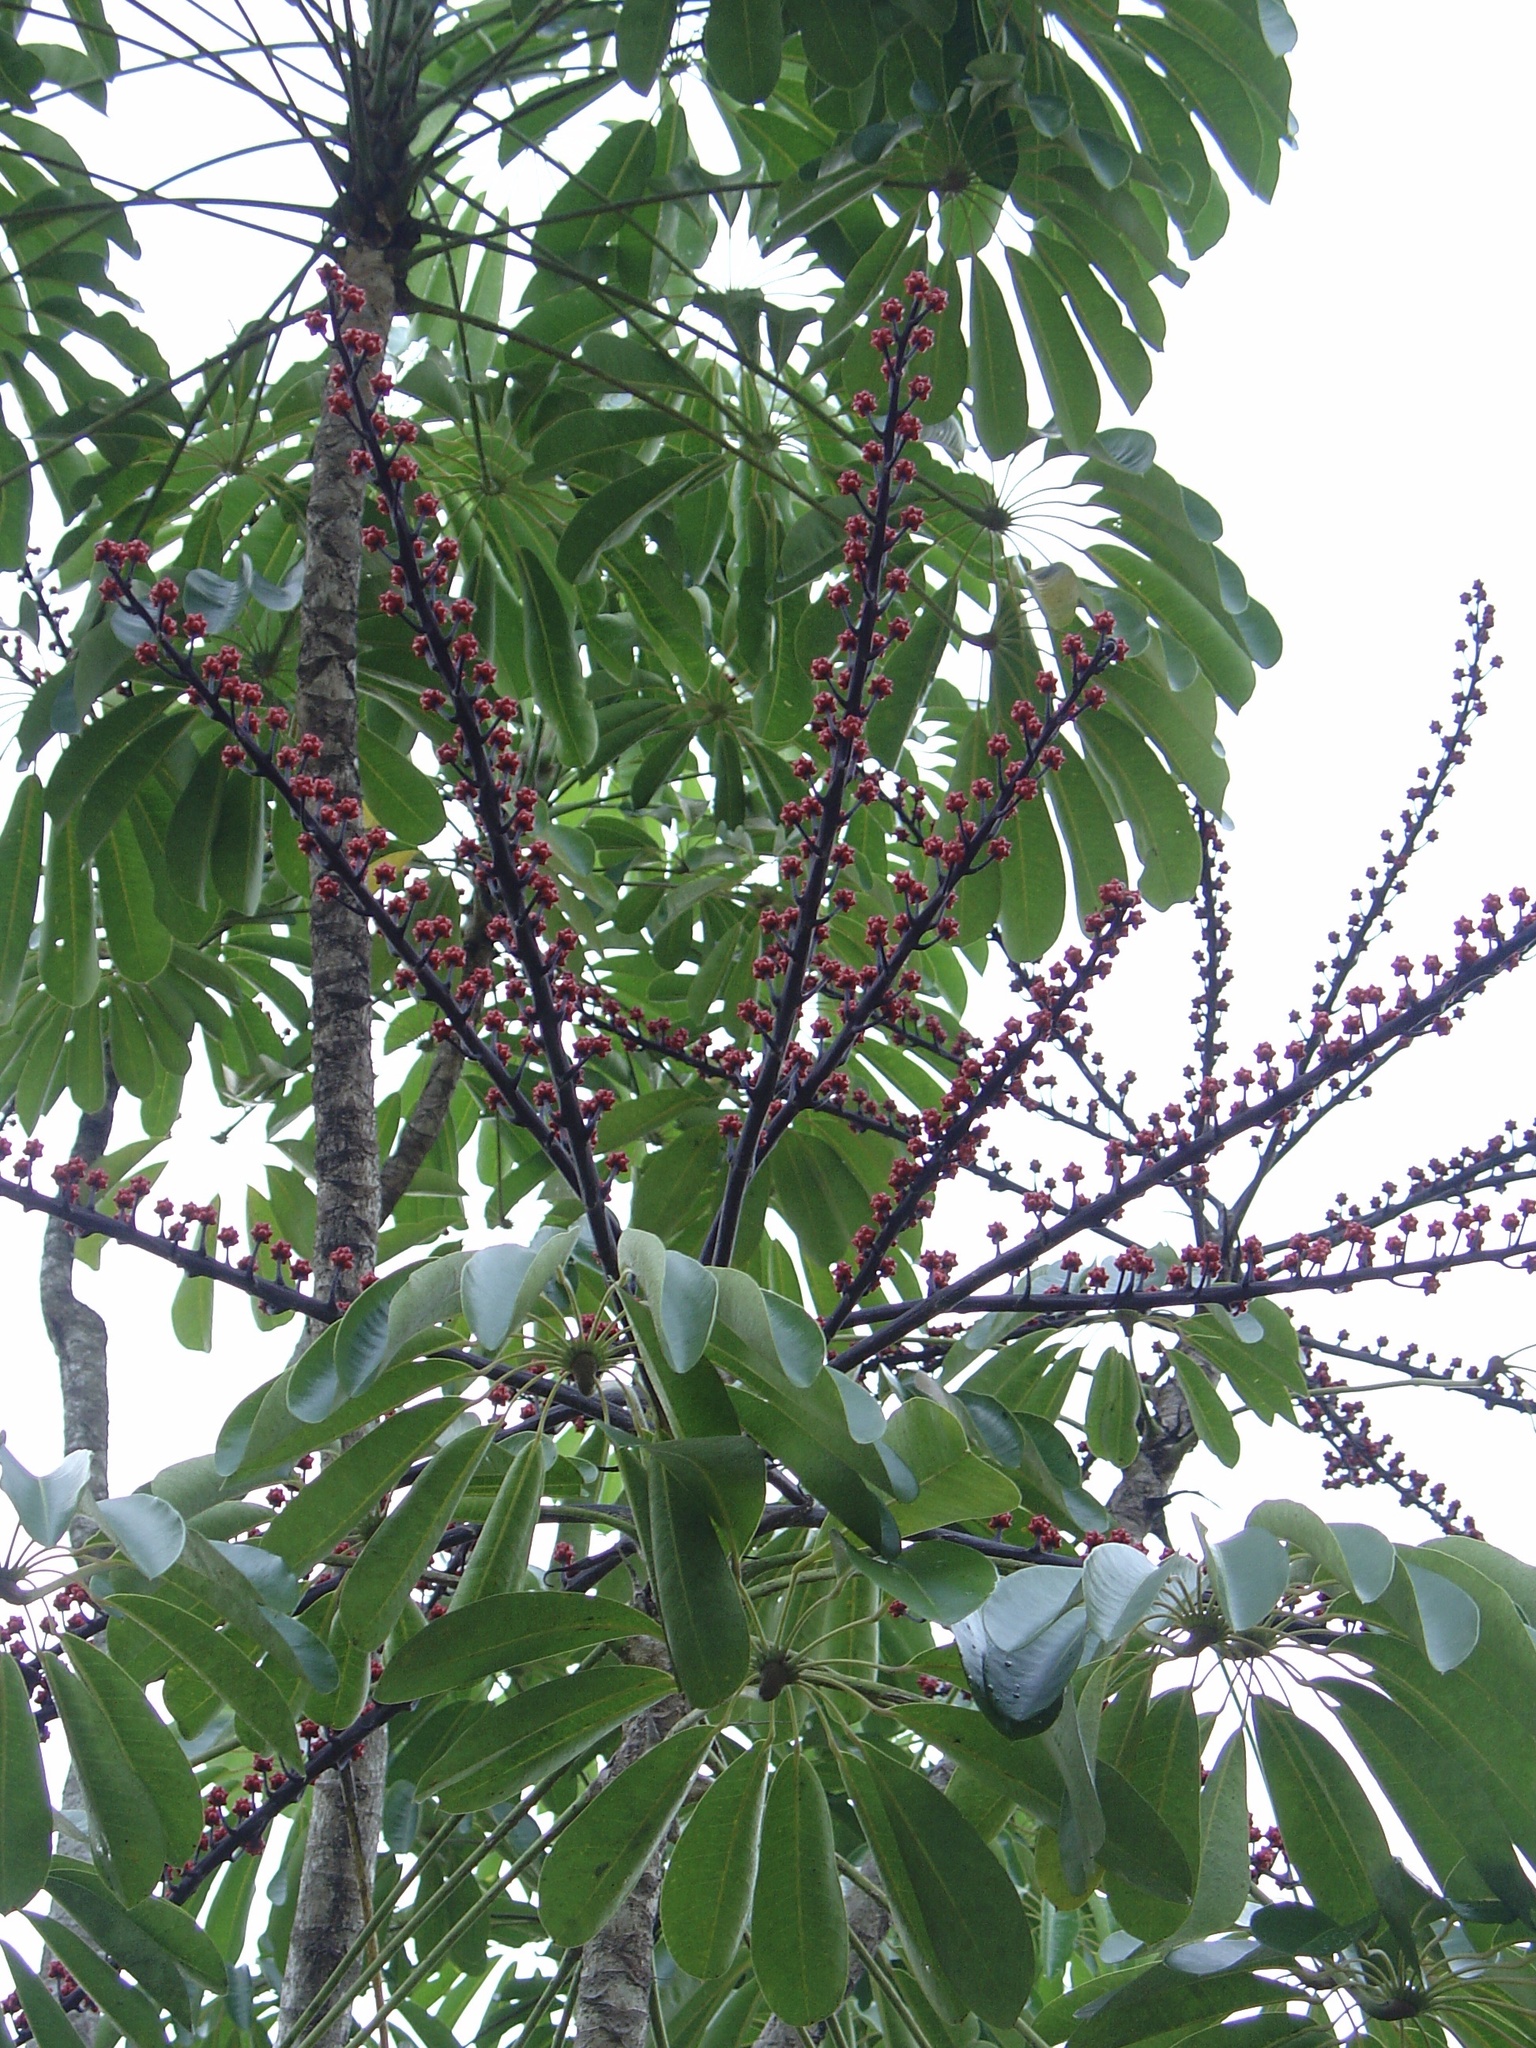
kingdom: Plantae
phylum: Tracheophyta
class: Magnoliopsida
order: Apiales
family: Araliaceae
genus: Heptapleurum
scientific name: Heptapleurum actinophyllum
